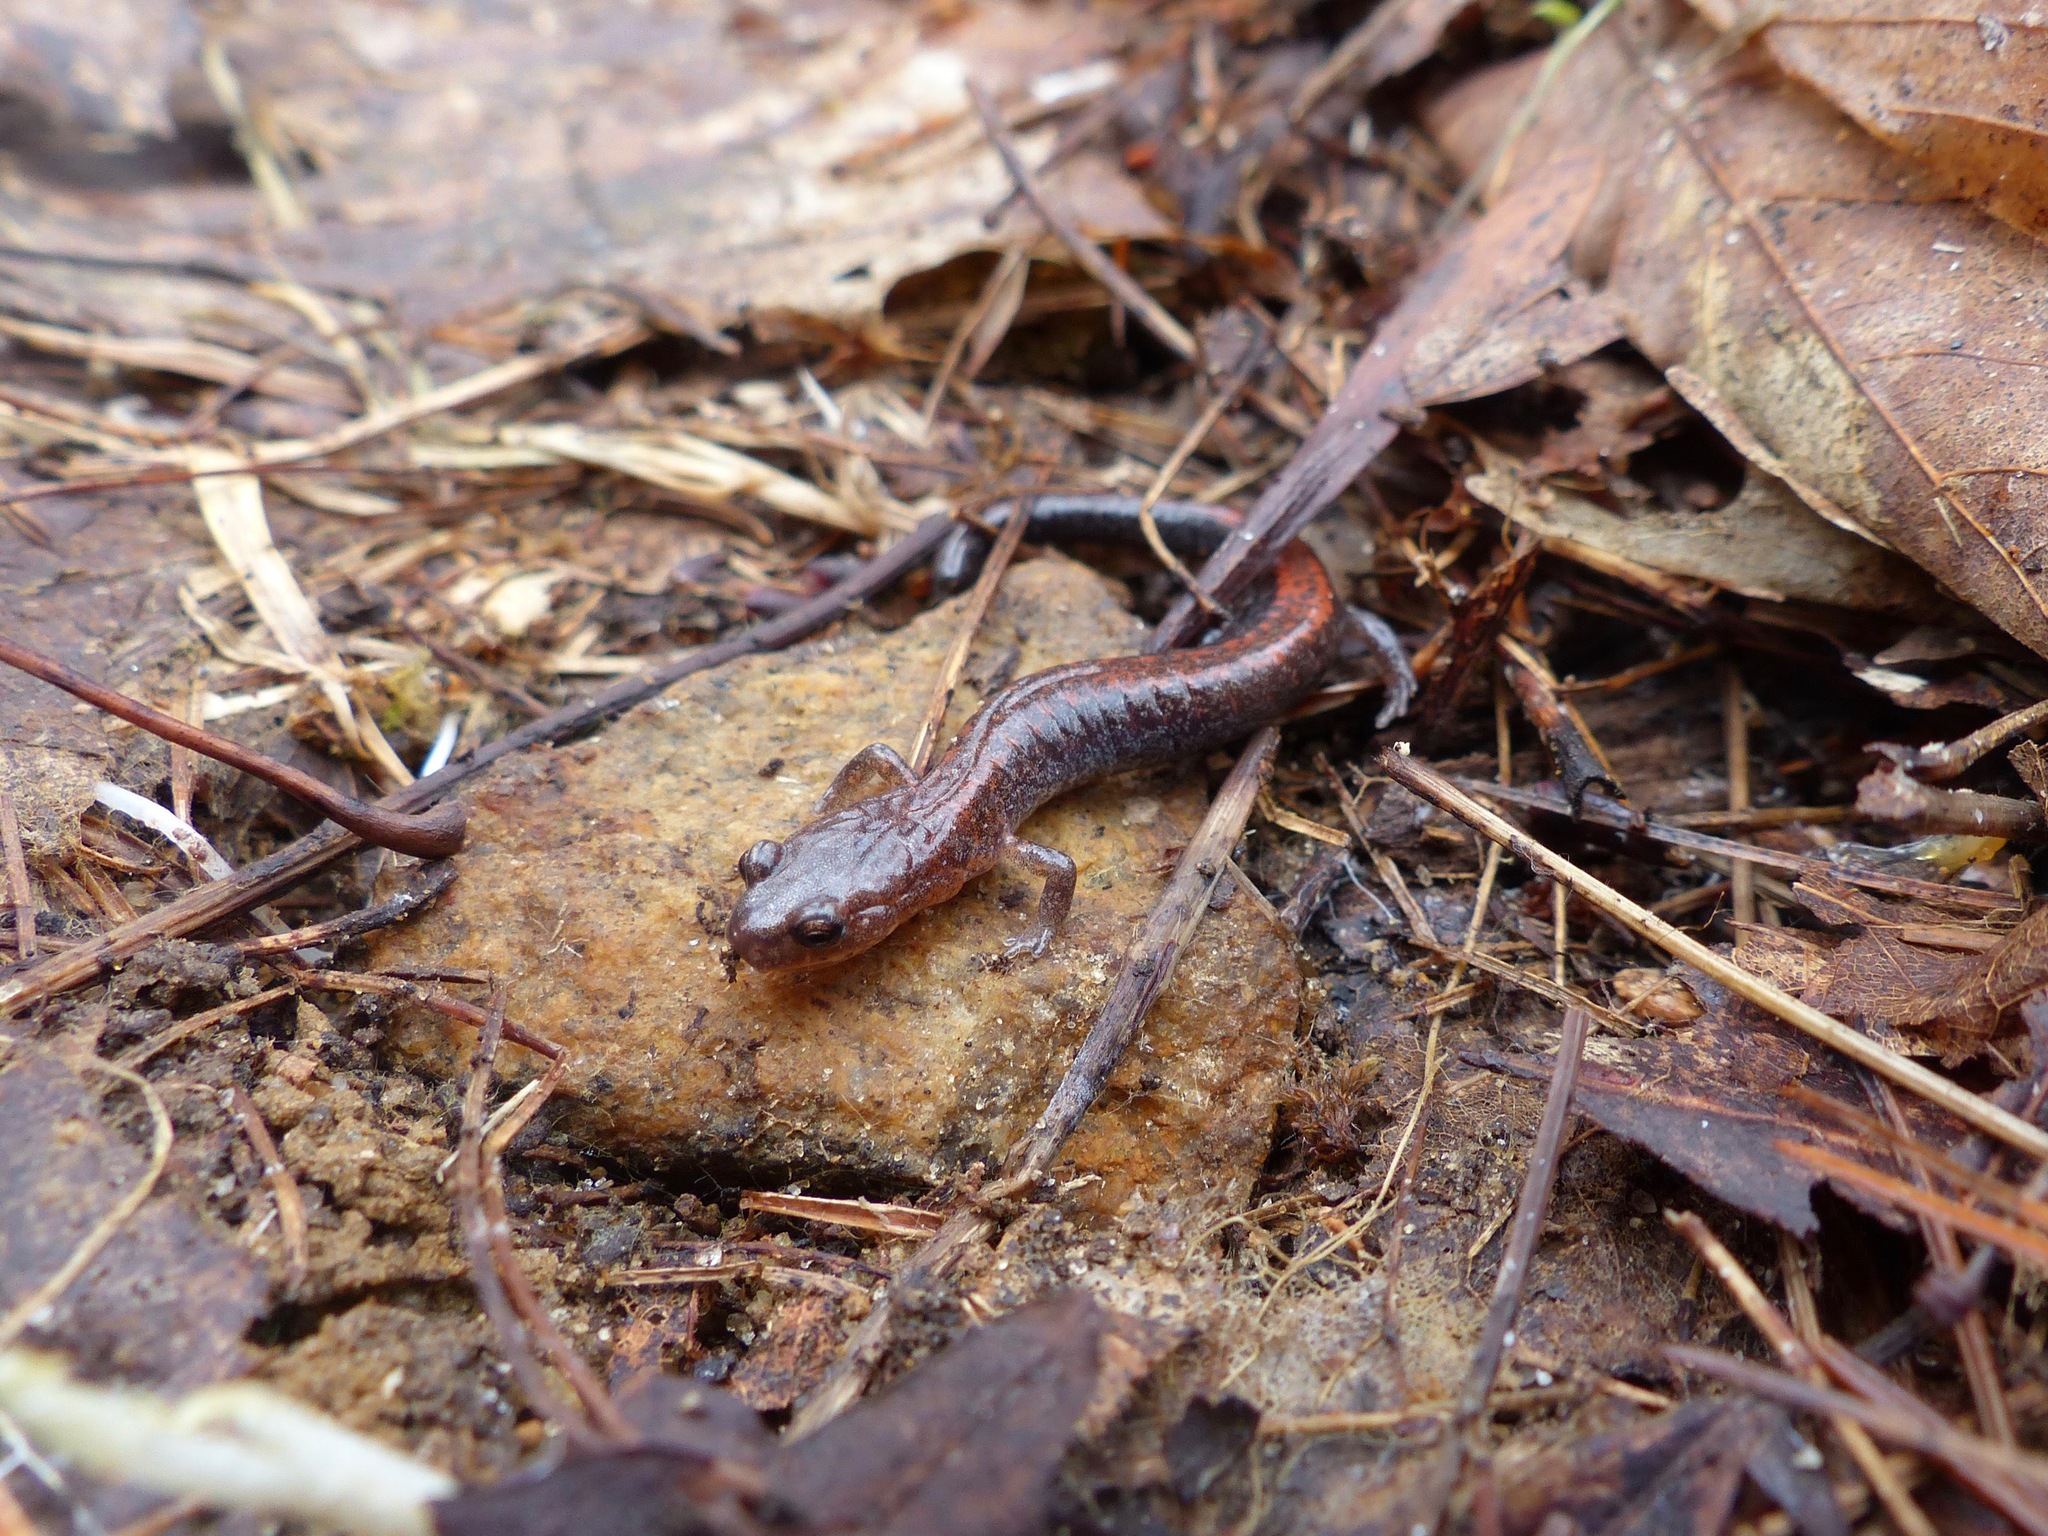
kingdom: Animalia
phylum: Chordata
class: Amphibia
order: Caudata
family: Plethodontidae
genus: Plethodon
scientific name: Plethodon cinereus
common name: Redback salamander
